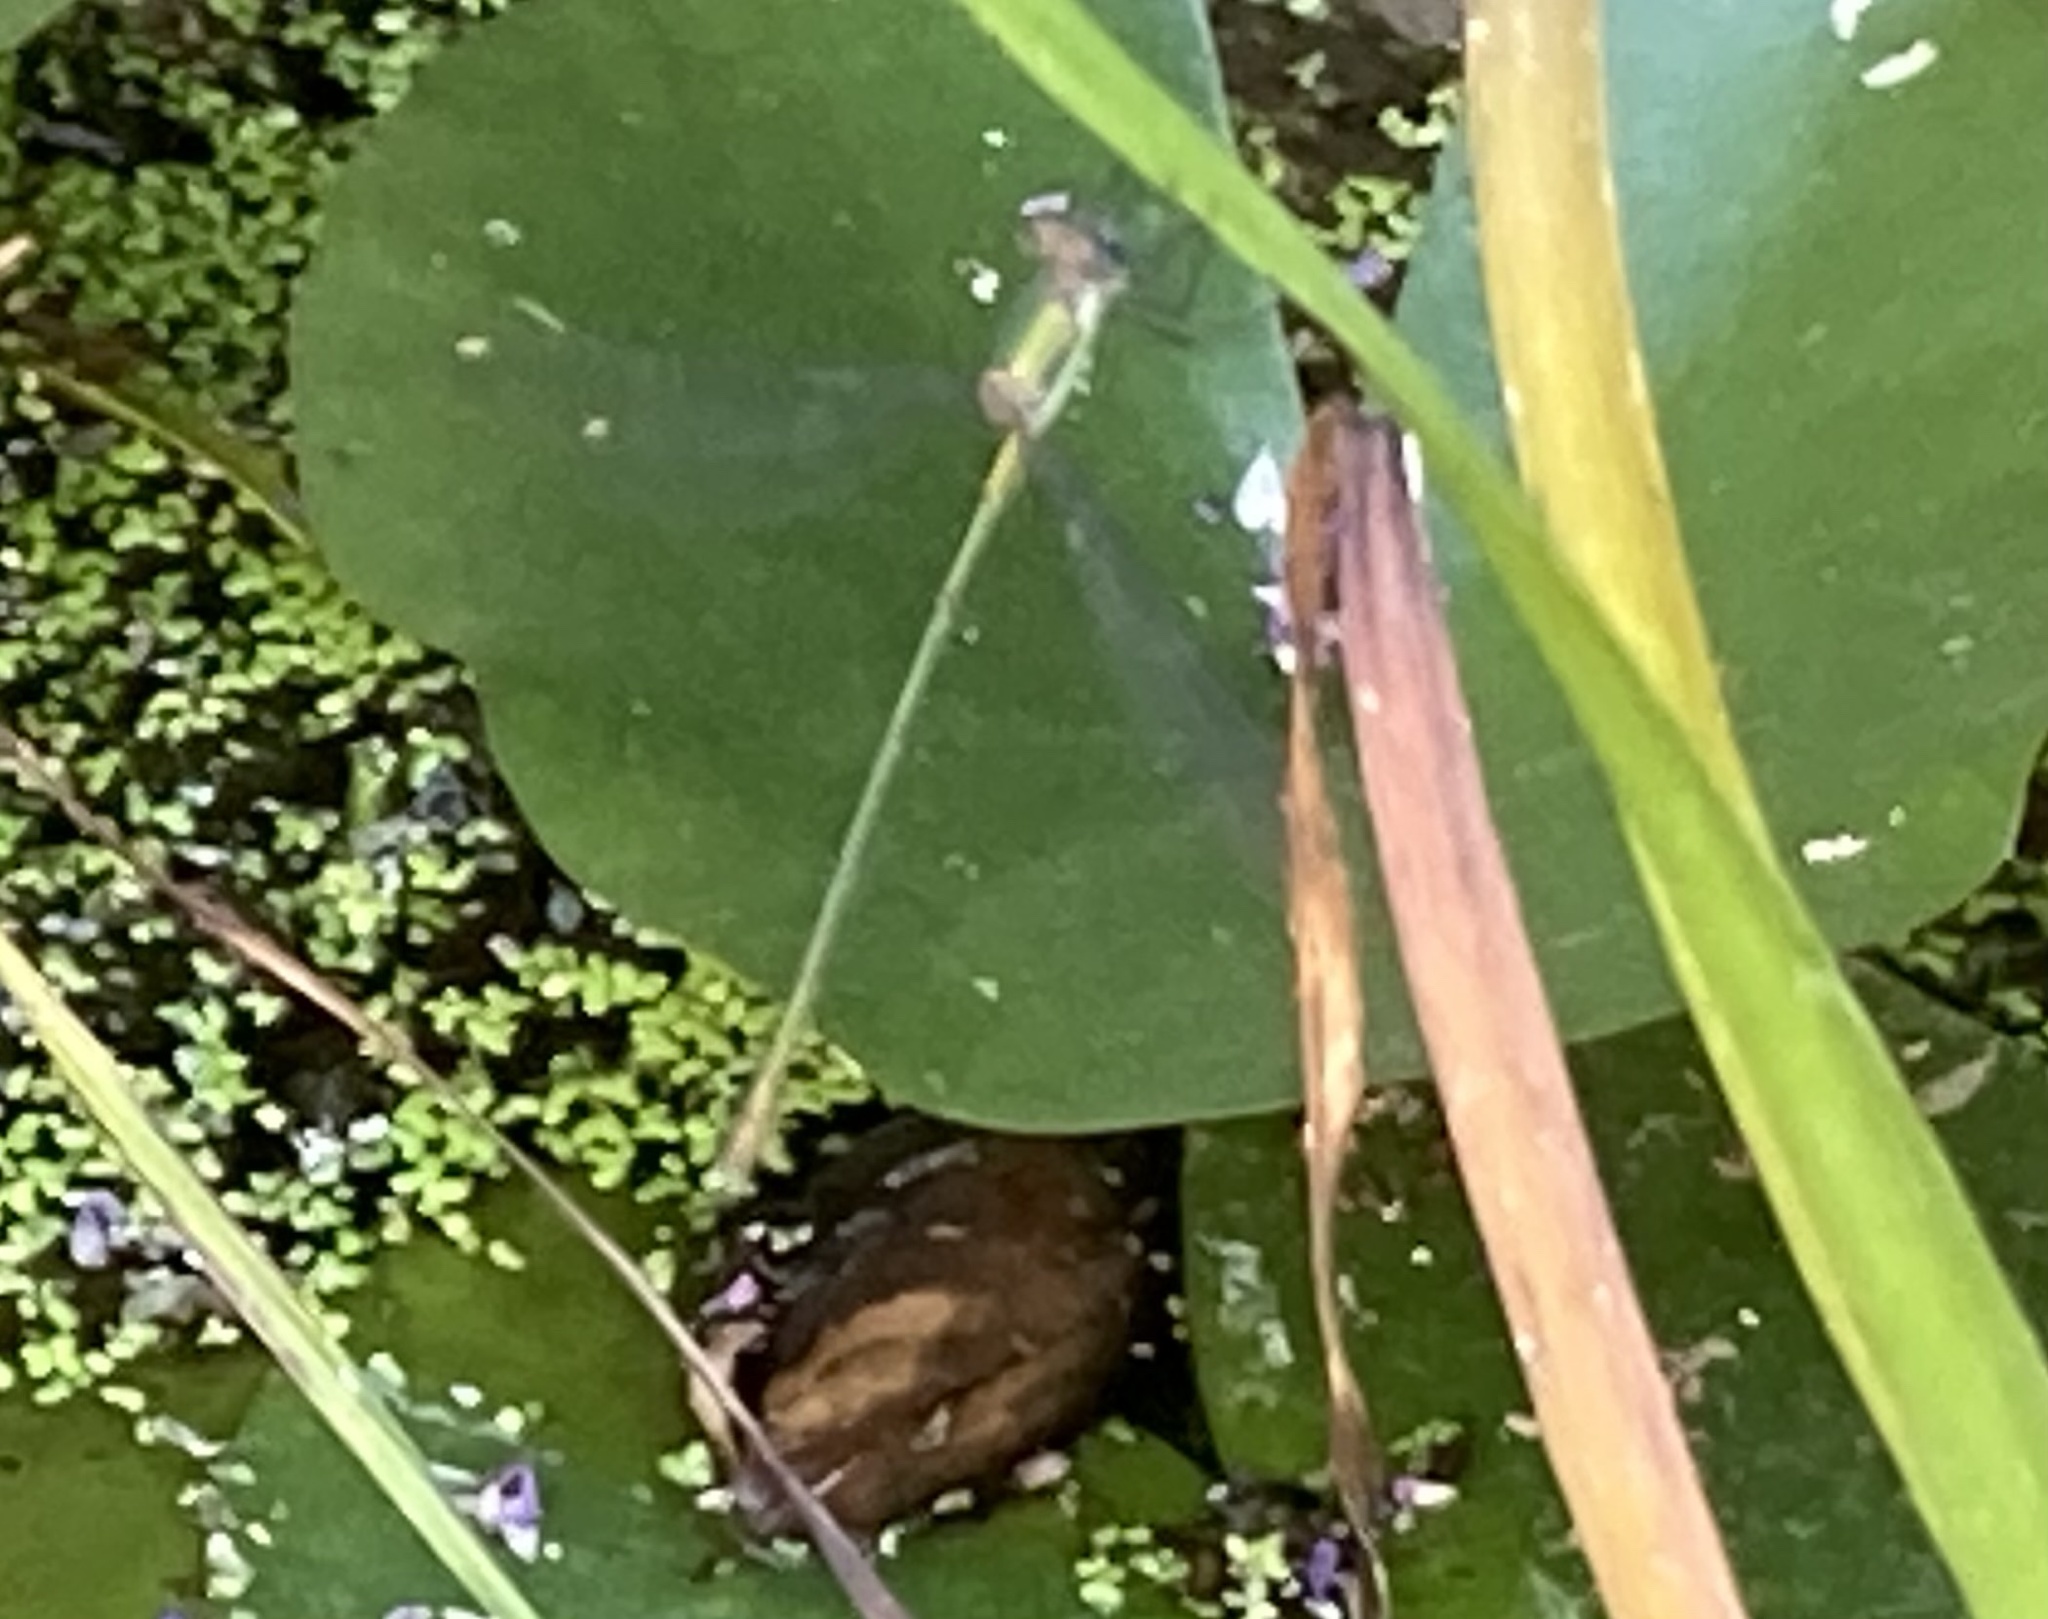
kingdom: Animalia
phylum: Arthropoda
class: Insecta
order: Odonata
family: Lestidae
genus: Lestes
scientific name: Lestes sponsa
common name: Common spreadwing
